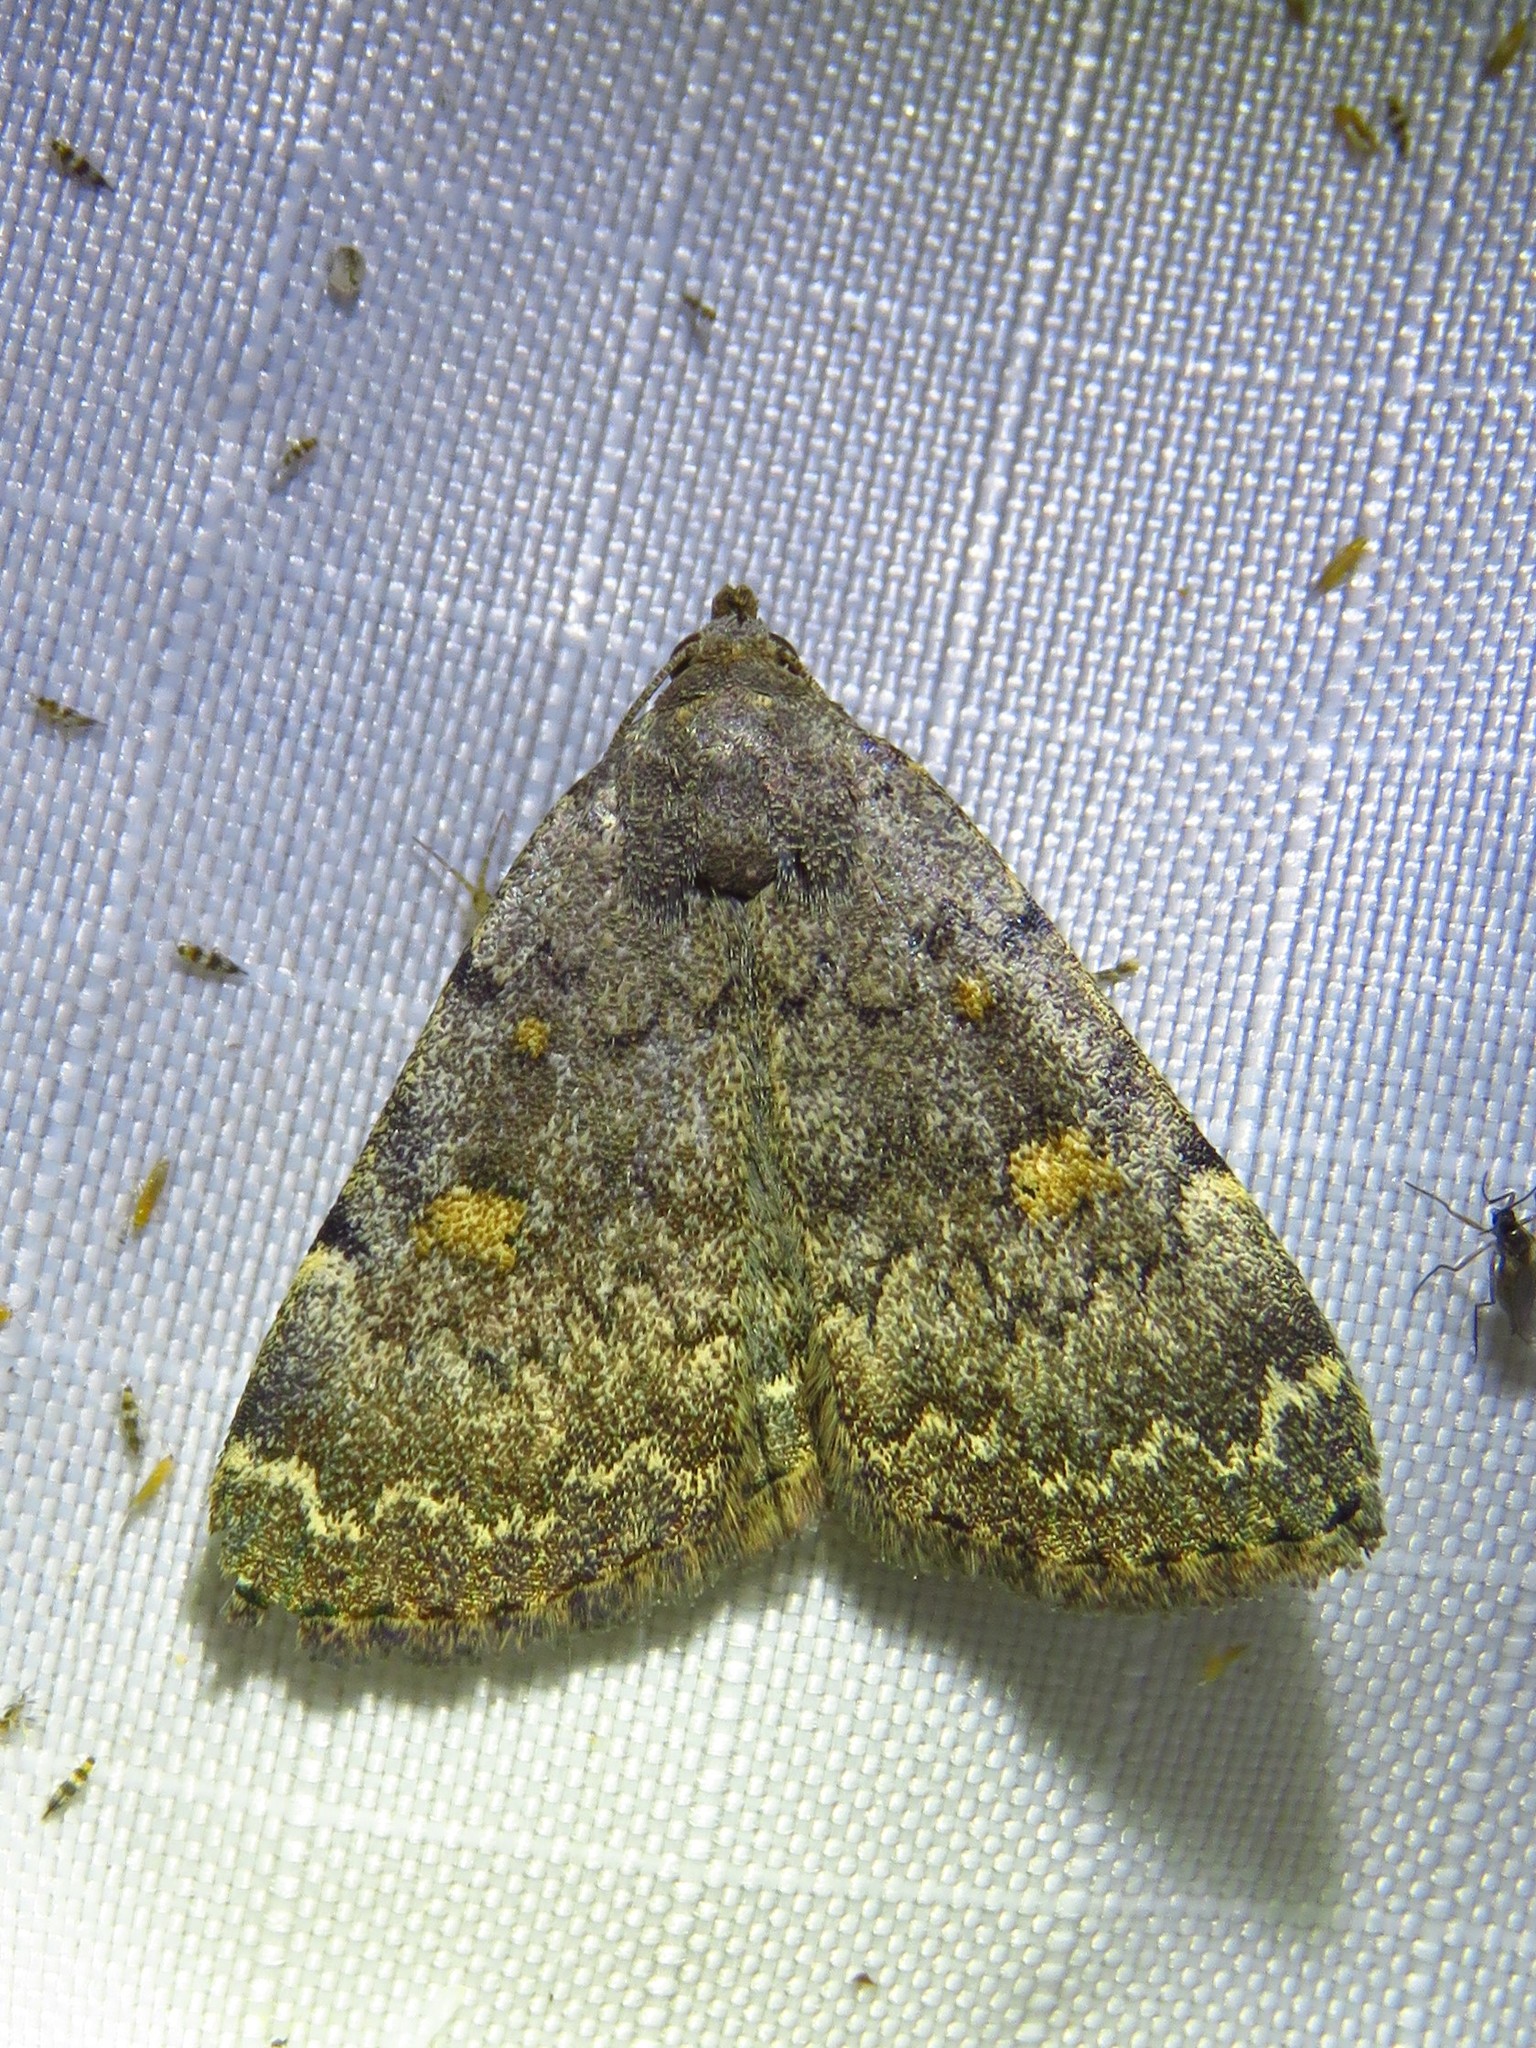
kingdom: Animalia
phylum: Arthropoda
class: Insecta
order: Lepidoptera
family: Erebidae
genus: Idia
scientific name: Idia aemula
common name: Common idia moth
